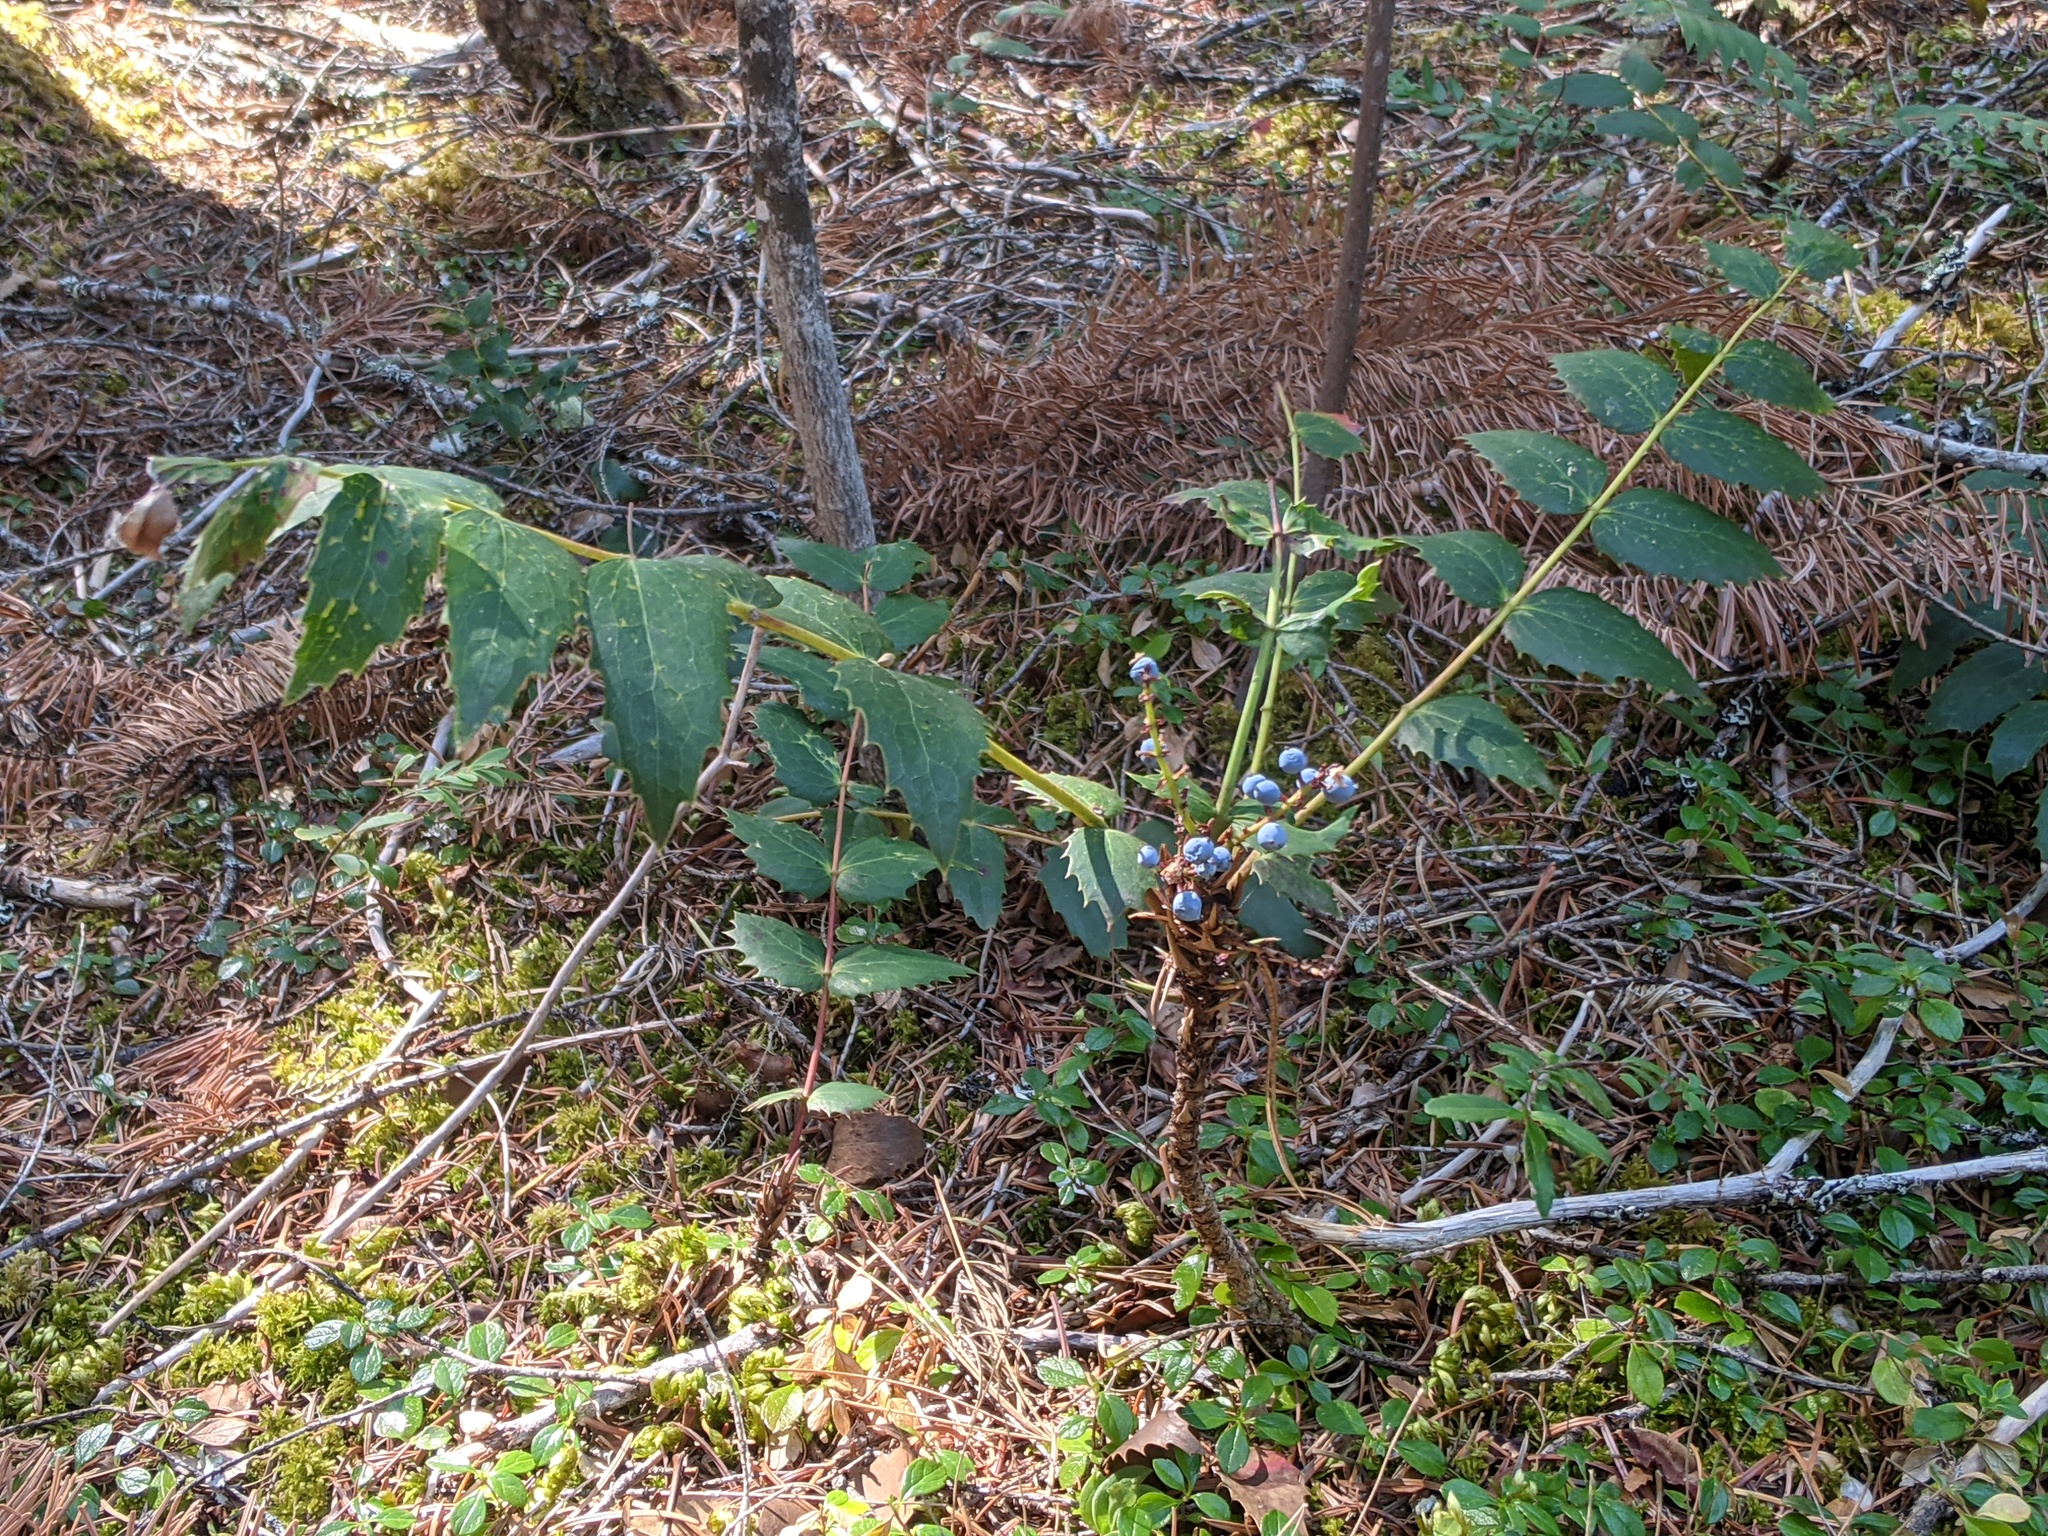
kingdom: Plantae
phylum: Tracheophyta
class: Magnoliopsida
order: Ranunculales
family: Berberidaceae
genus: Mahonia
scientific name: Mahonia nervosa
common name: Cascade oregon-grape
